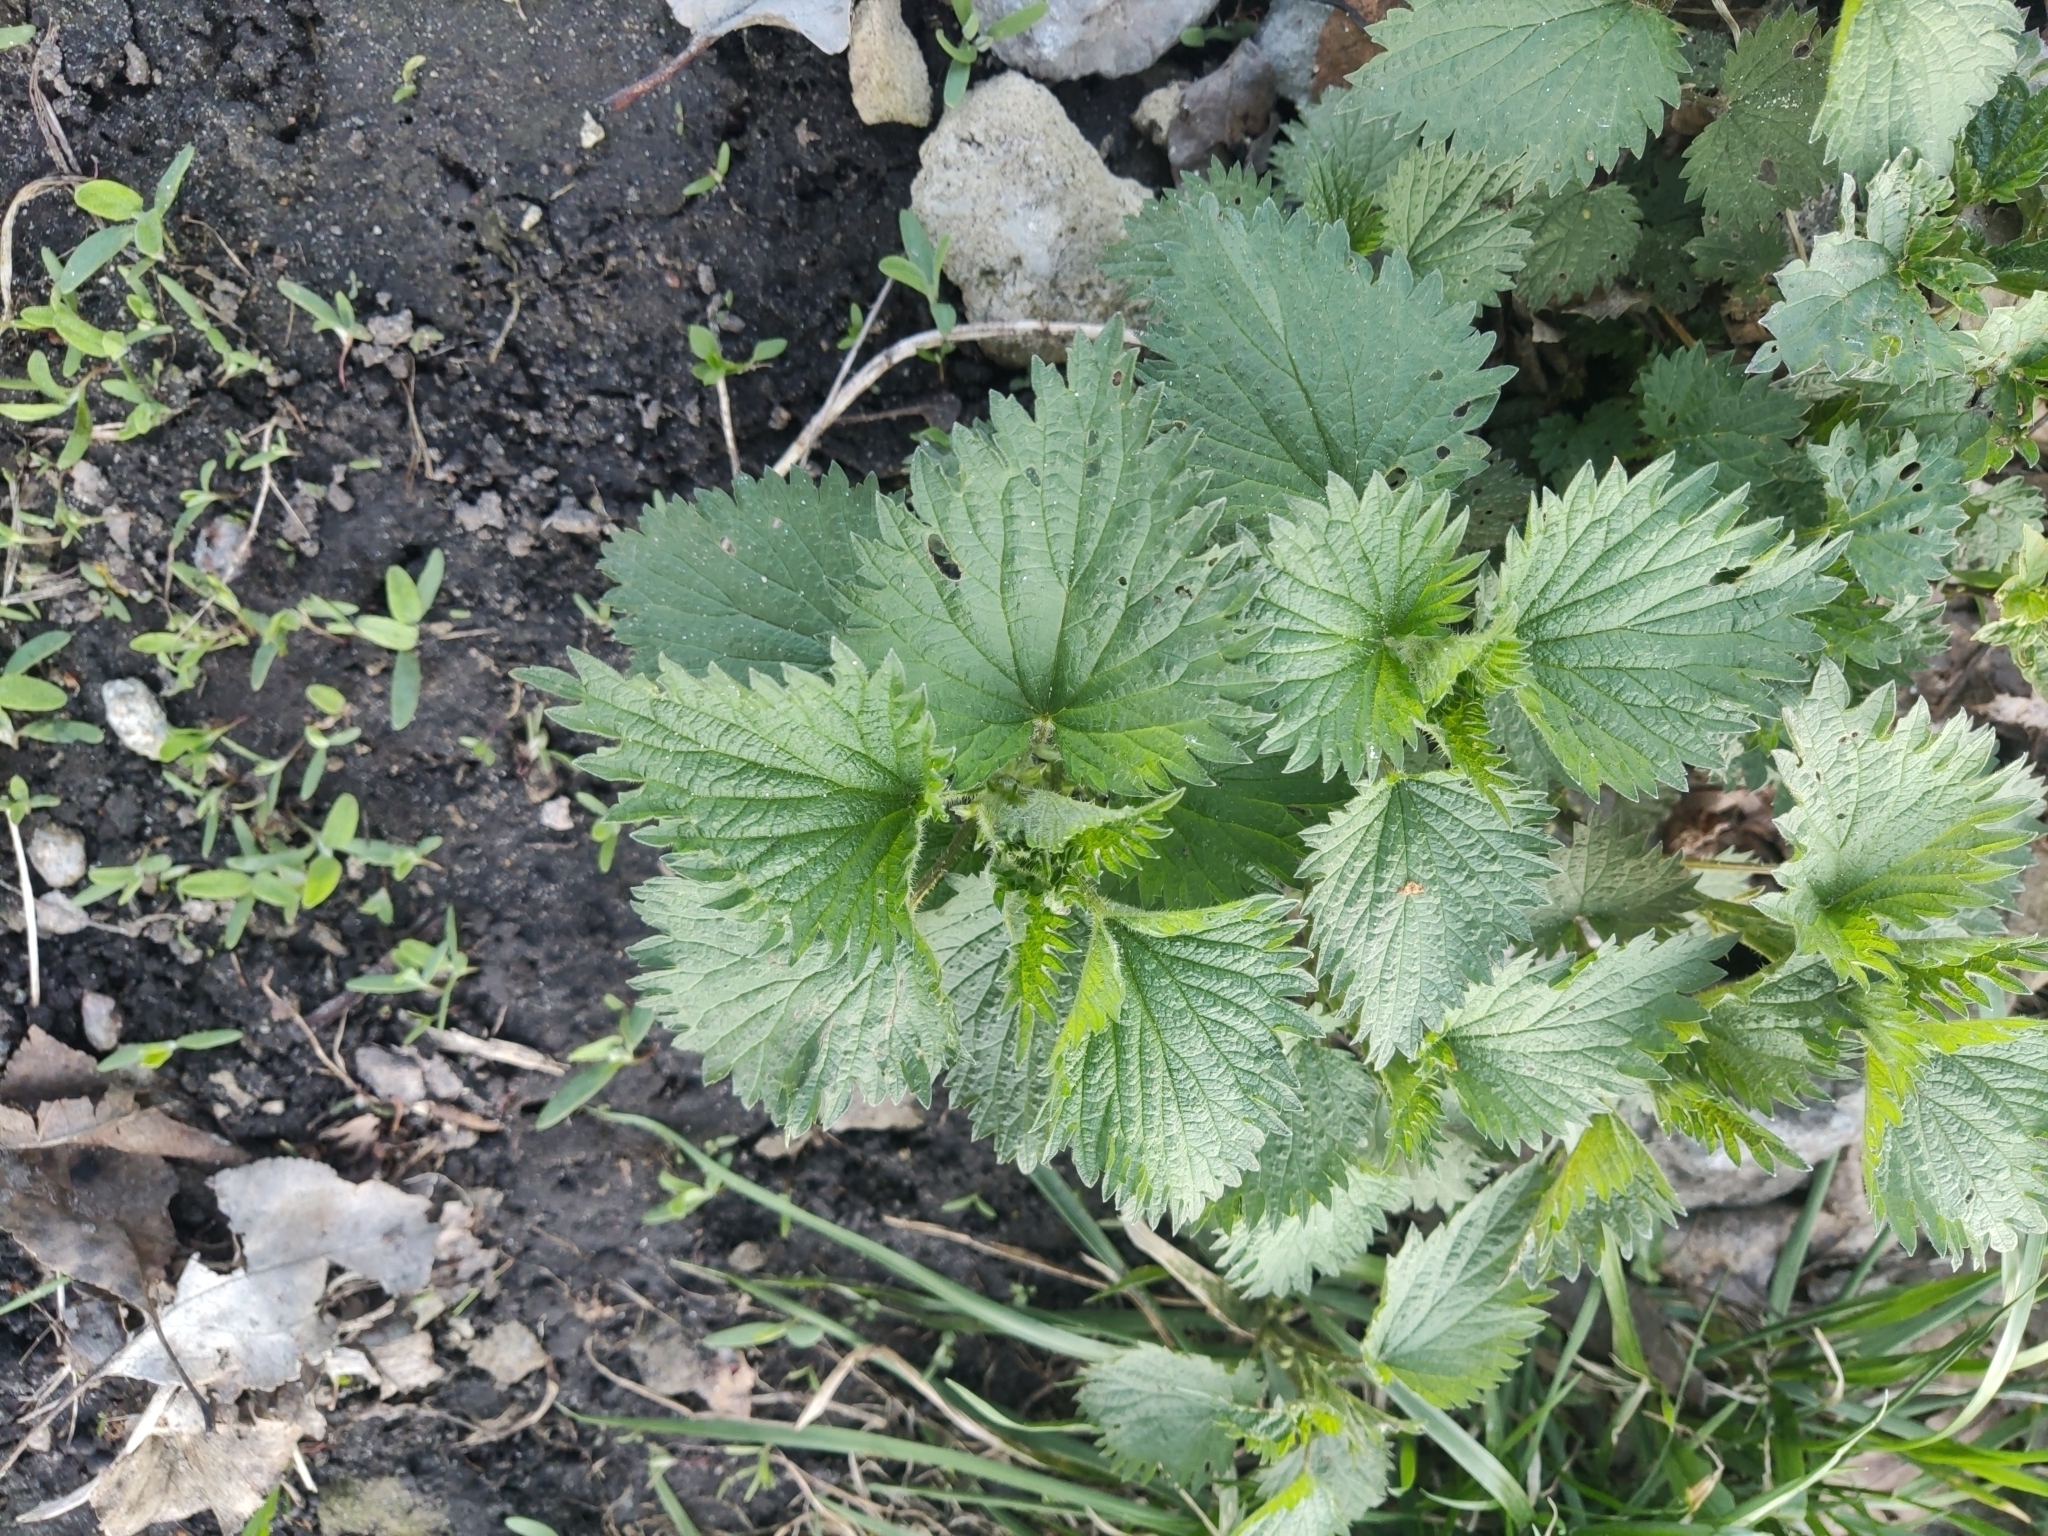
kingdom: Plantae
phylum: Tracheophyta
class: Magnoliopsida
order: Rosales
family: Urticaceae
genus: Urtica
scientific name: Urtica dioica
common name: Common nettle
